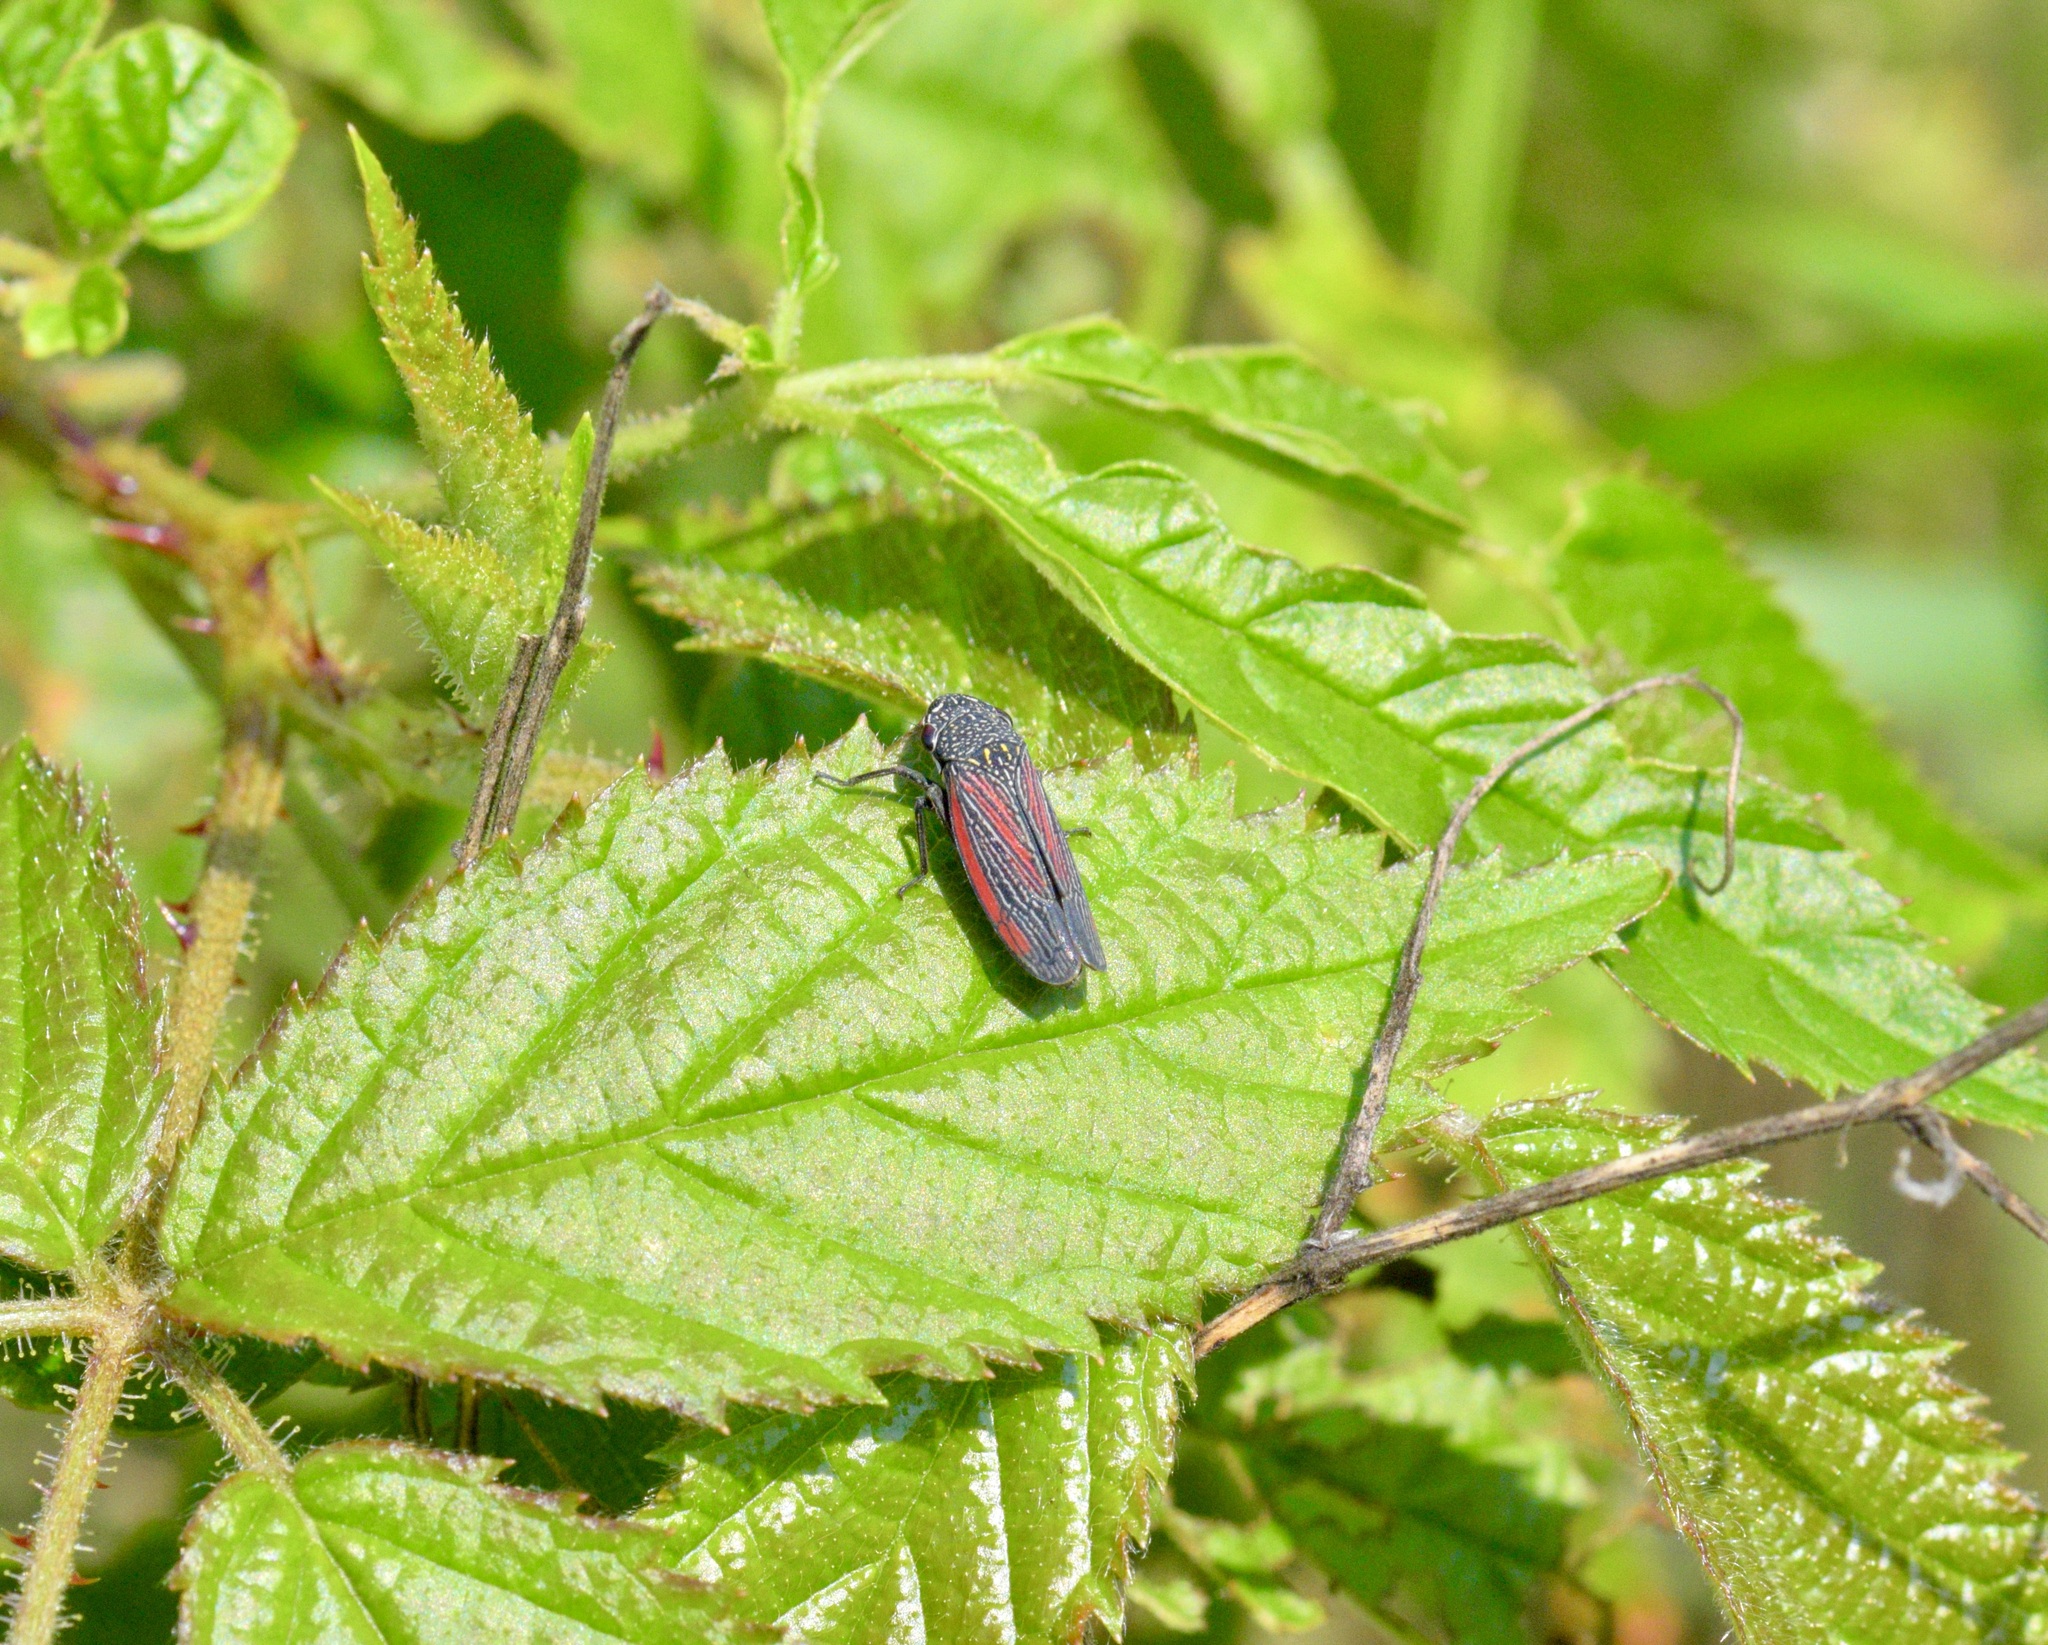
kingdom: Animalia
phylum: Arthropoda
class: Insecta
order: Hemiptera
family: Cicadellidae
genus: Cuerna
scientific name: Cuerna striata
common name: Striped leafhopper
